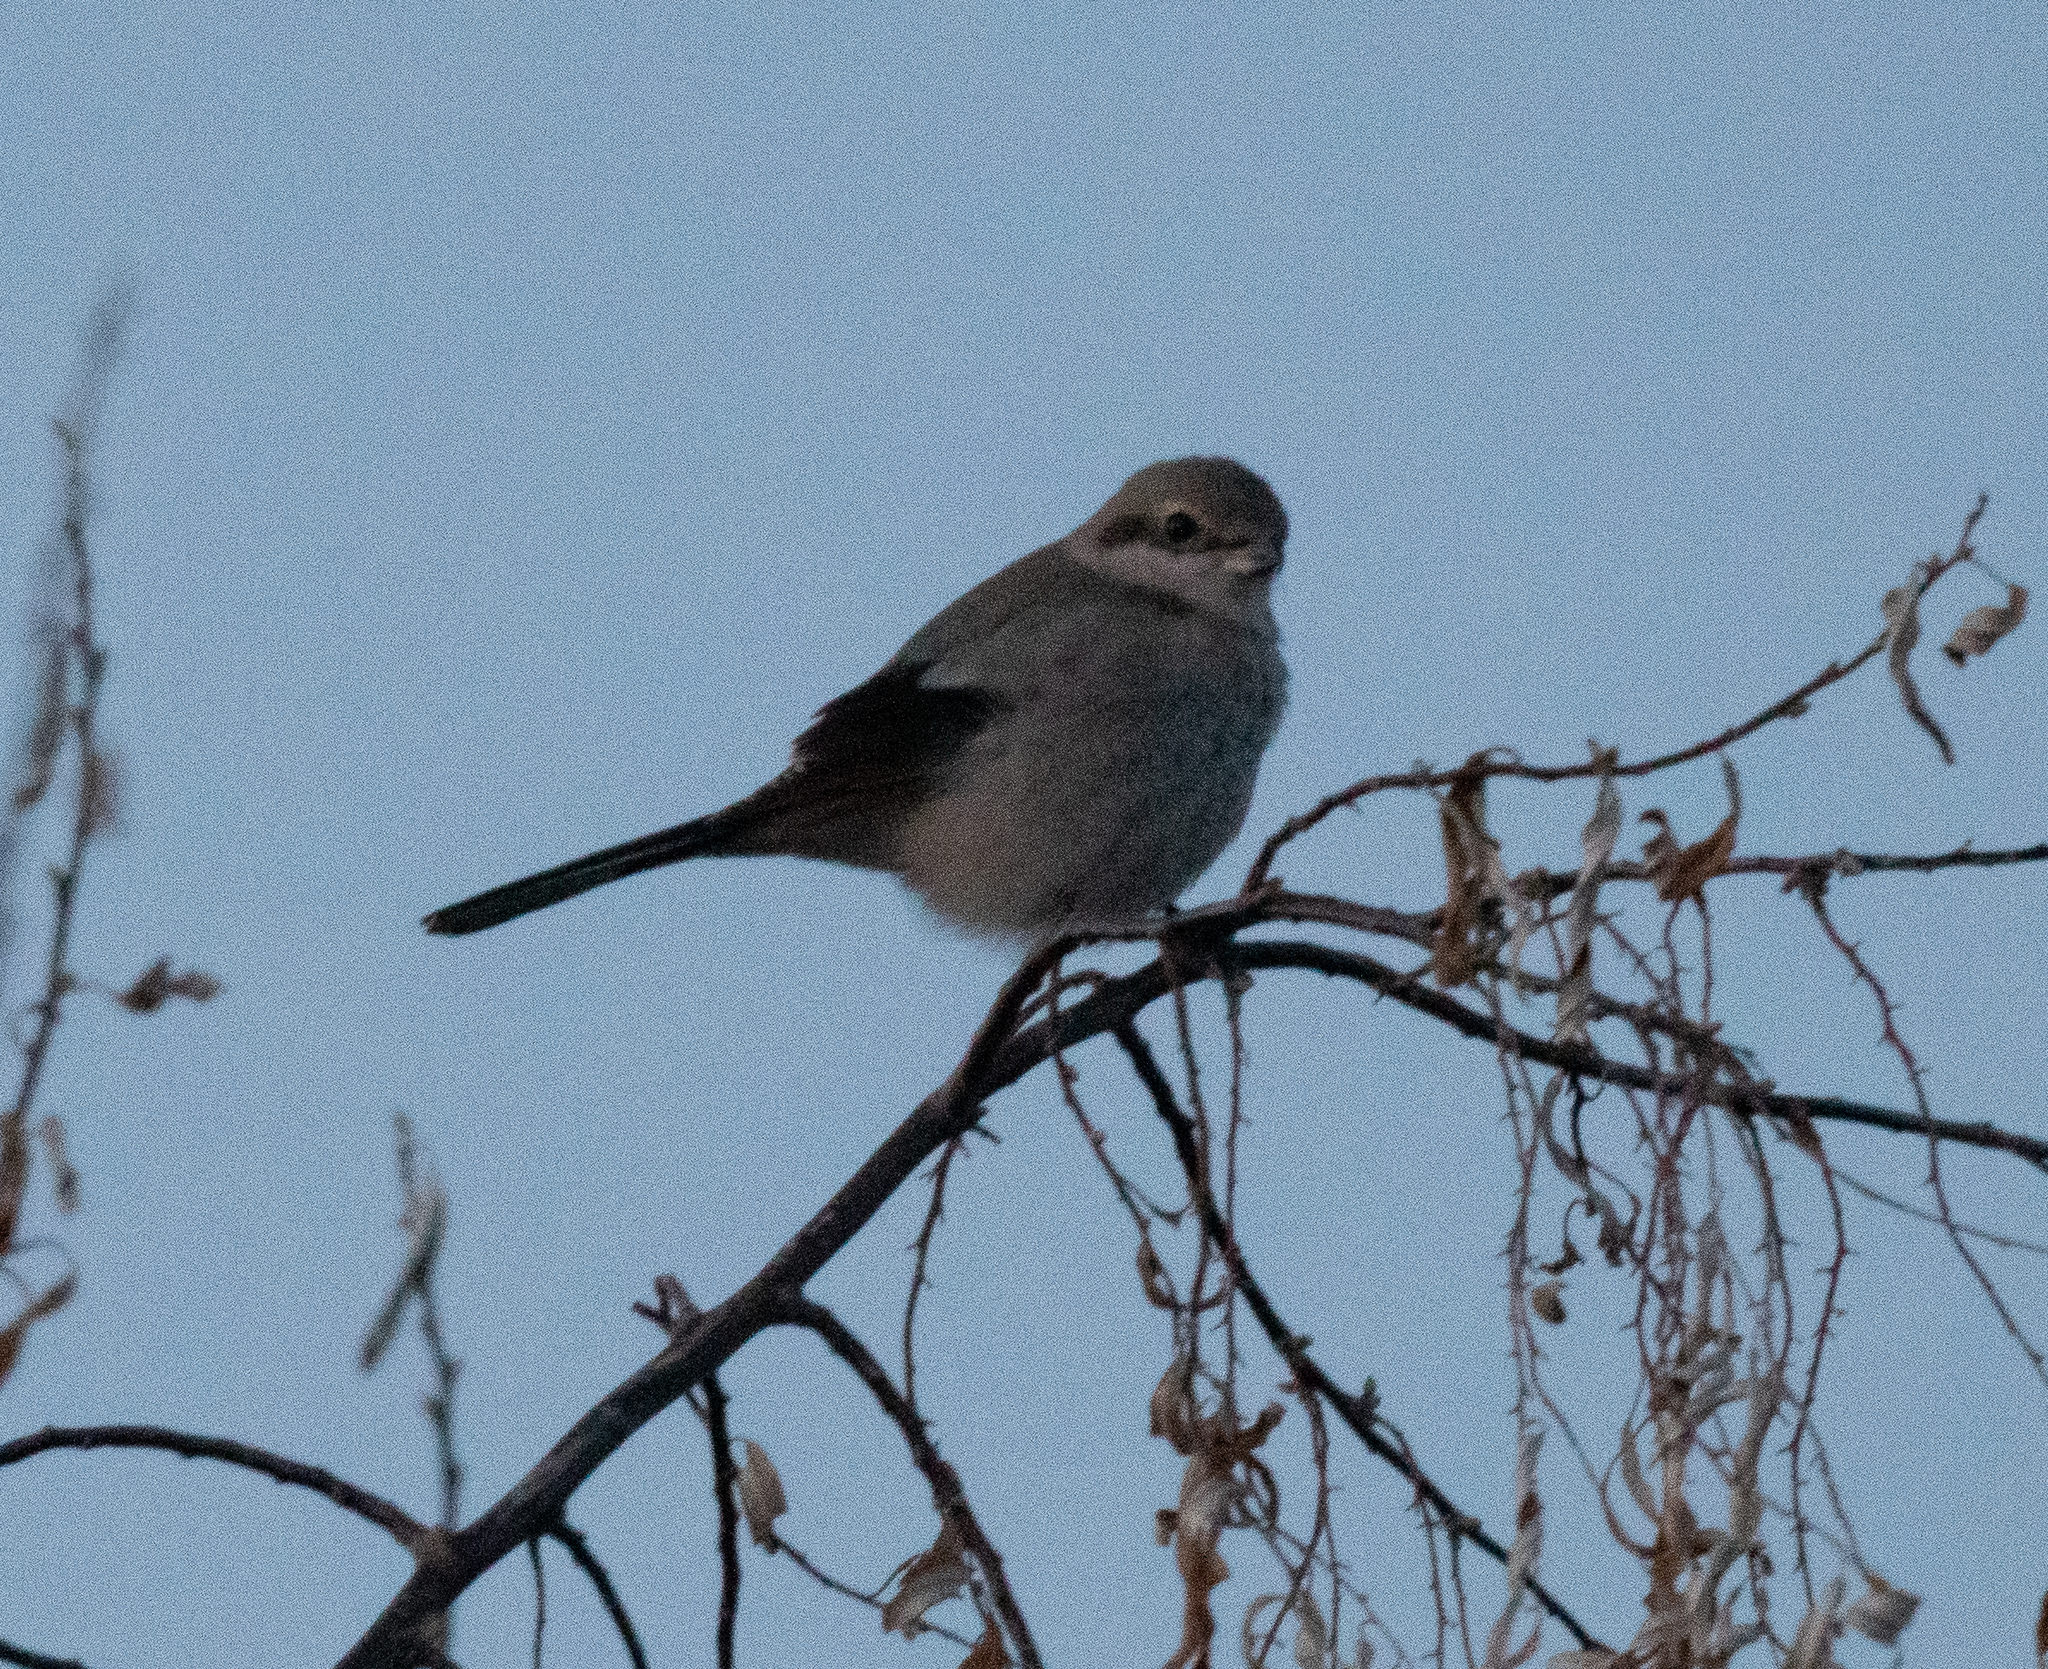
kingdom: Animalia
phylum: Chordata
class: Aves
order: Passeriformes
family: Laniidae
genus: Lanius
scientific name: Lanius borealis
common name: Northern shrike
